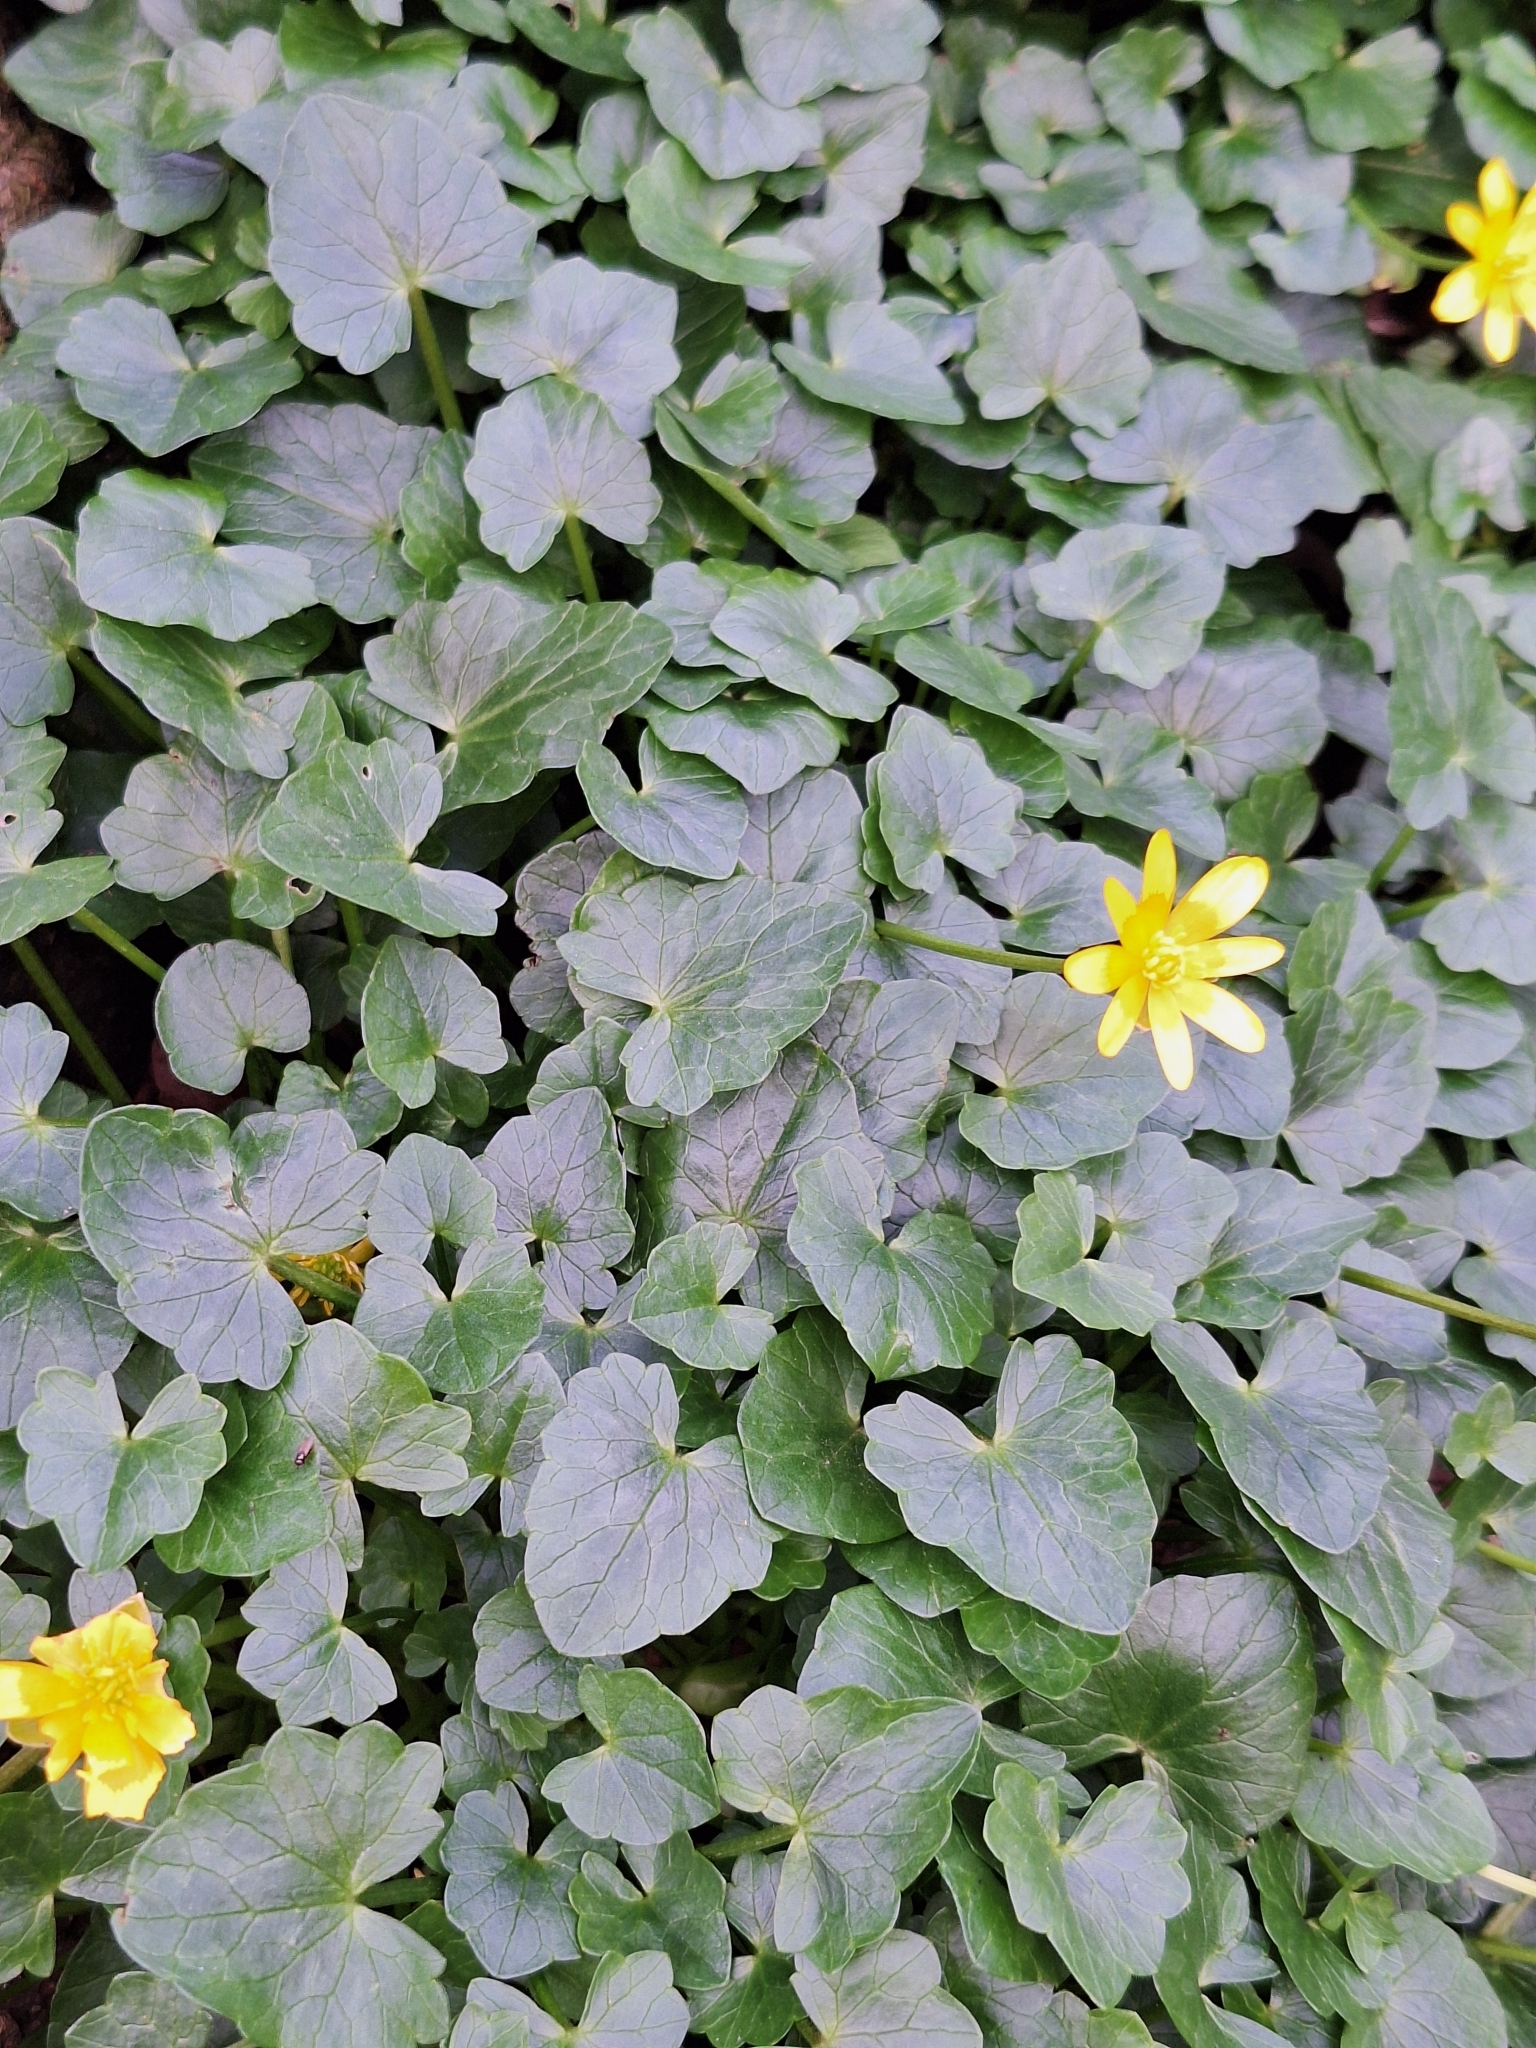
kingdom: Plantae
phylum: Tracheophyta
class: Magnoliopsida
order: Ranunculales
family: Ranunculaceae
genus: Ficaria
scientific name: Ficaria verna
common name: Lesser celandine
